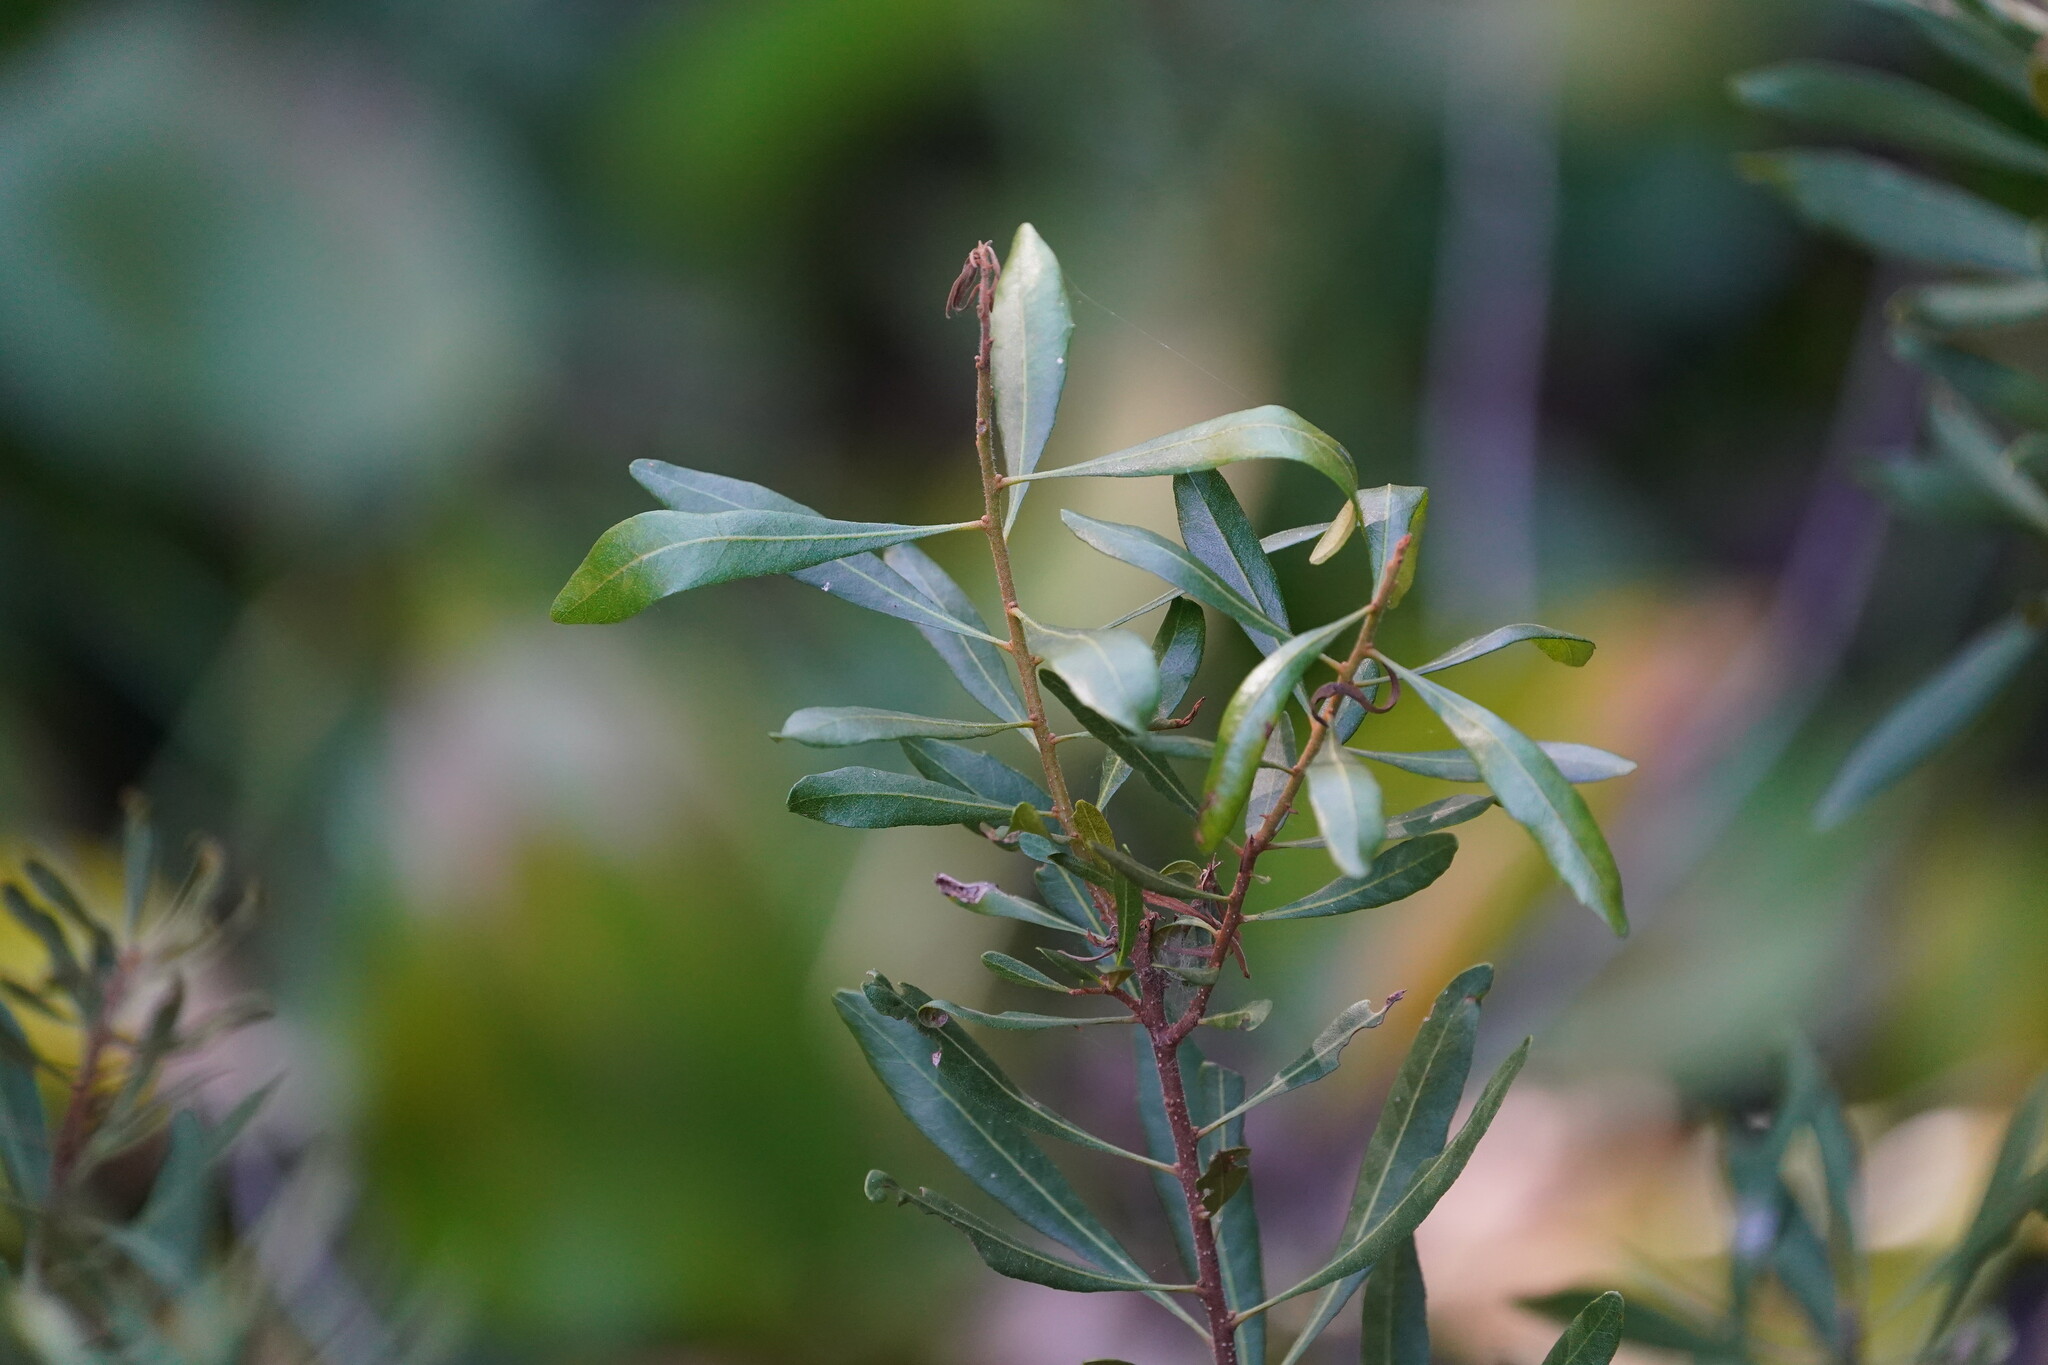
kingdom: Plantae
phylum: Tracheophyta
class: Magnoliopsida
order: Fagales
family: Myricaceae
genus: Morella
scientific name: Morella cerifera
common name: Wax myrtle
